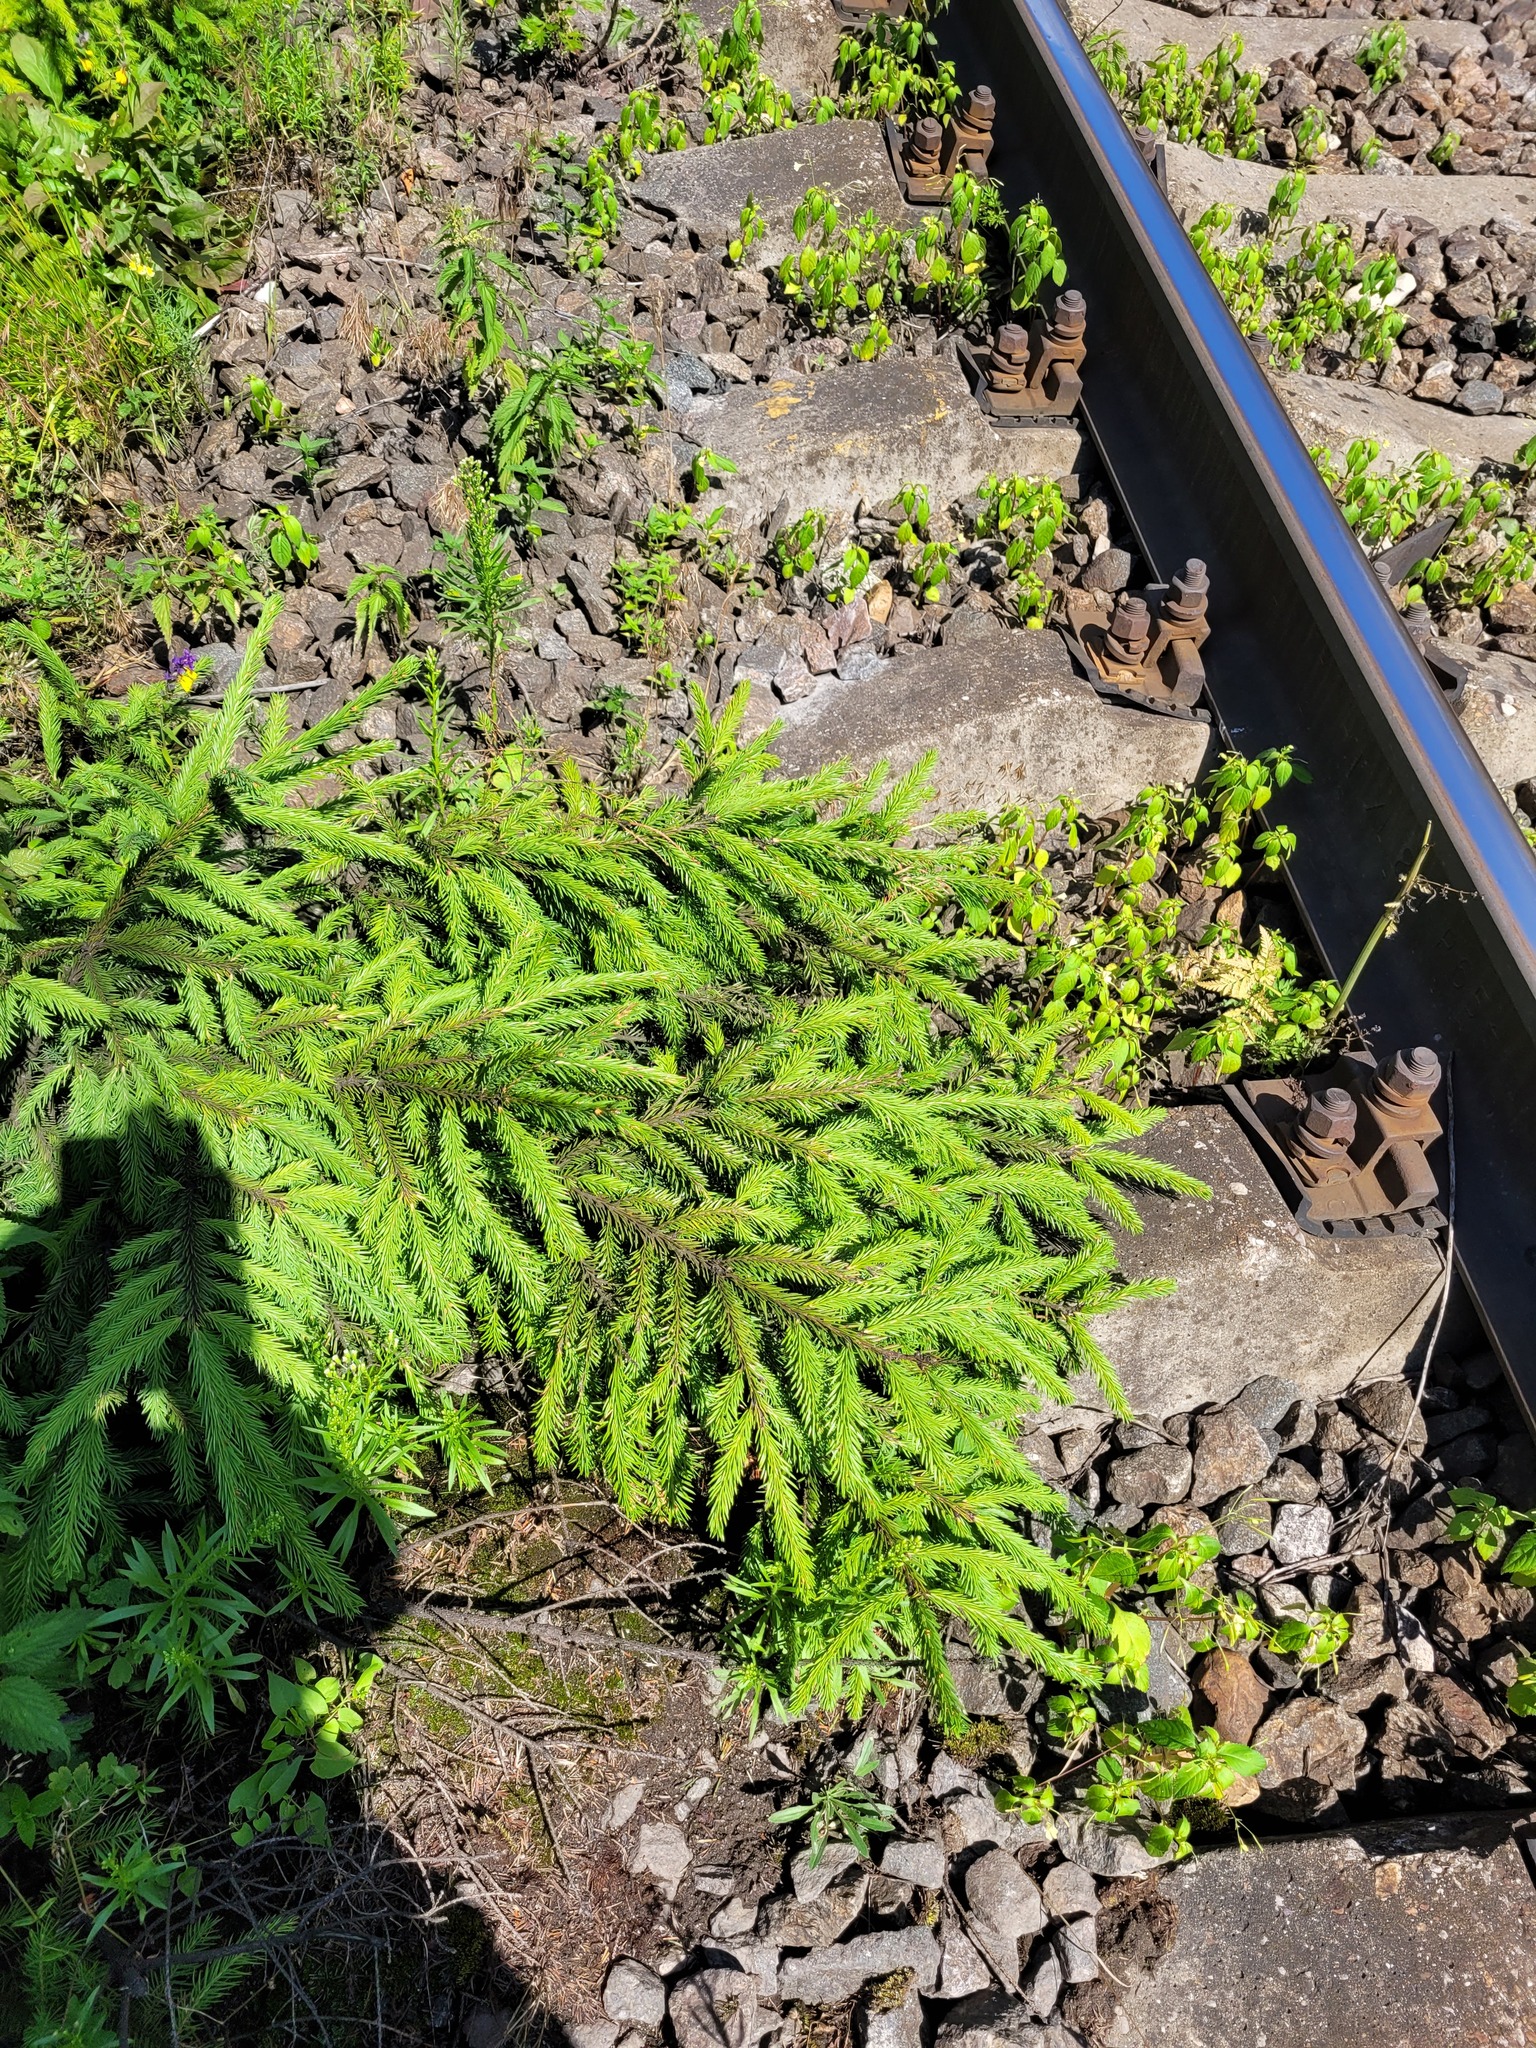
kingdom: Plantae
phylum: Tracheophyta
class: Pinopsida
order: Pinales
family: Pinaceae
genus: Picea
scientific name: Picea abies
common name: Norway spruce
